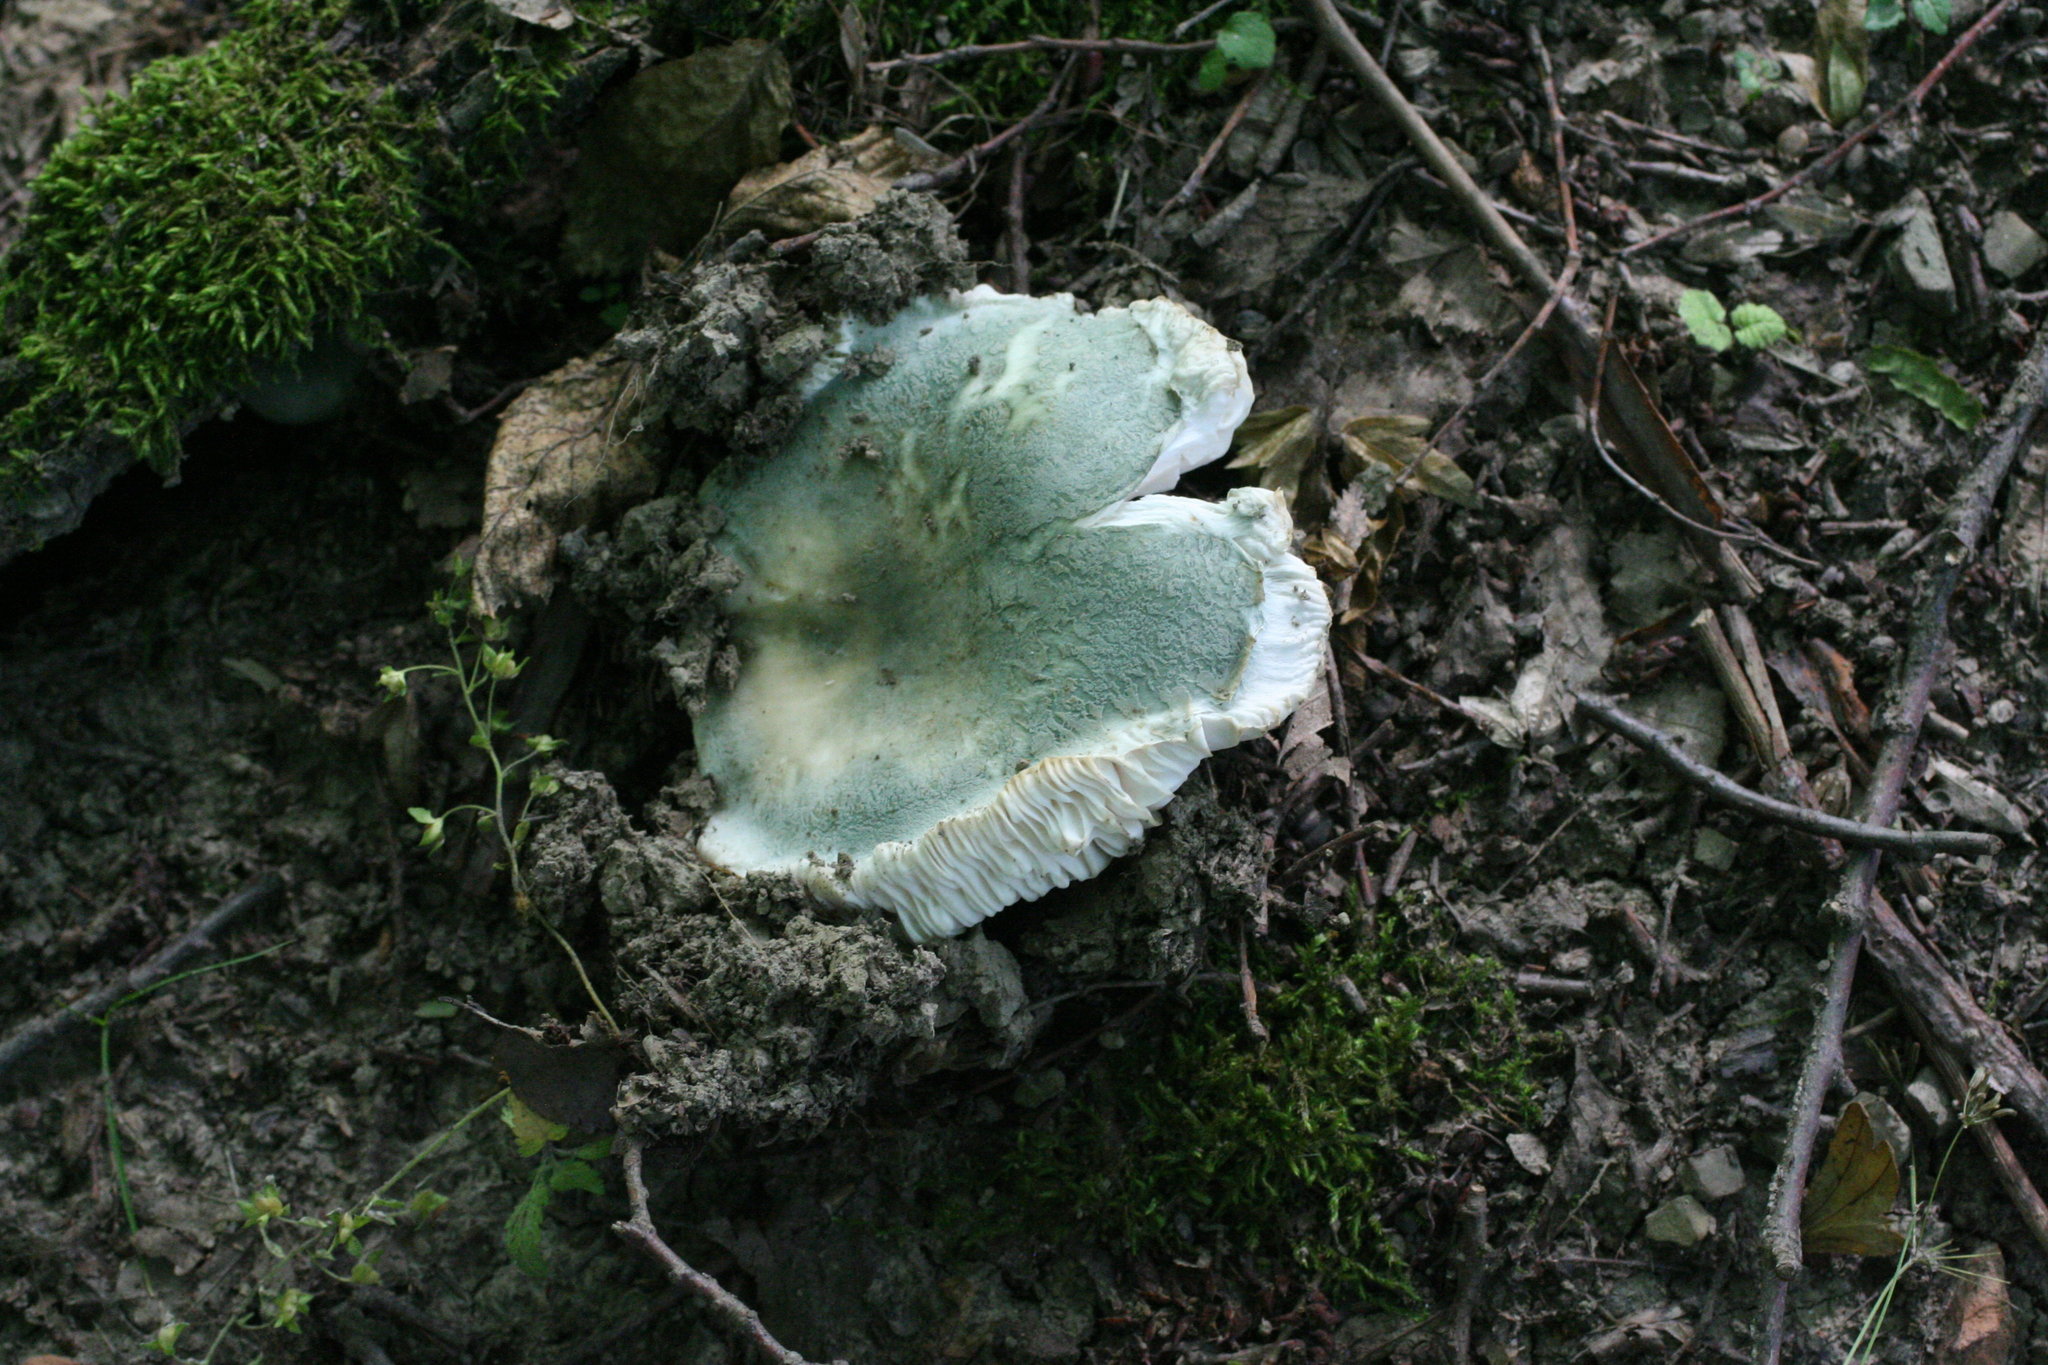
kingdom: Fungi
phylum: Basidiomycota
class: Agaricomycetes
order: Russulales
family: Russulaceae
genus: Russula
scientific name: Russula virescens
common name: Greencracked brittlegill
